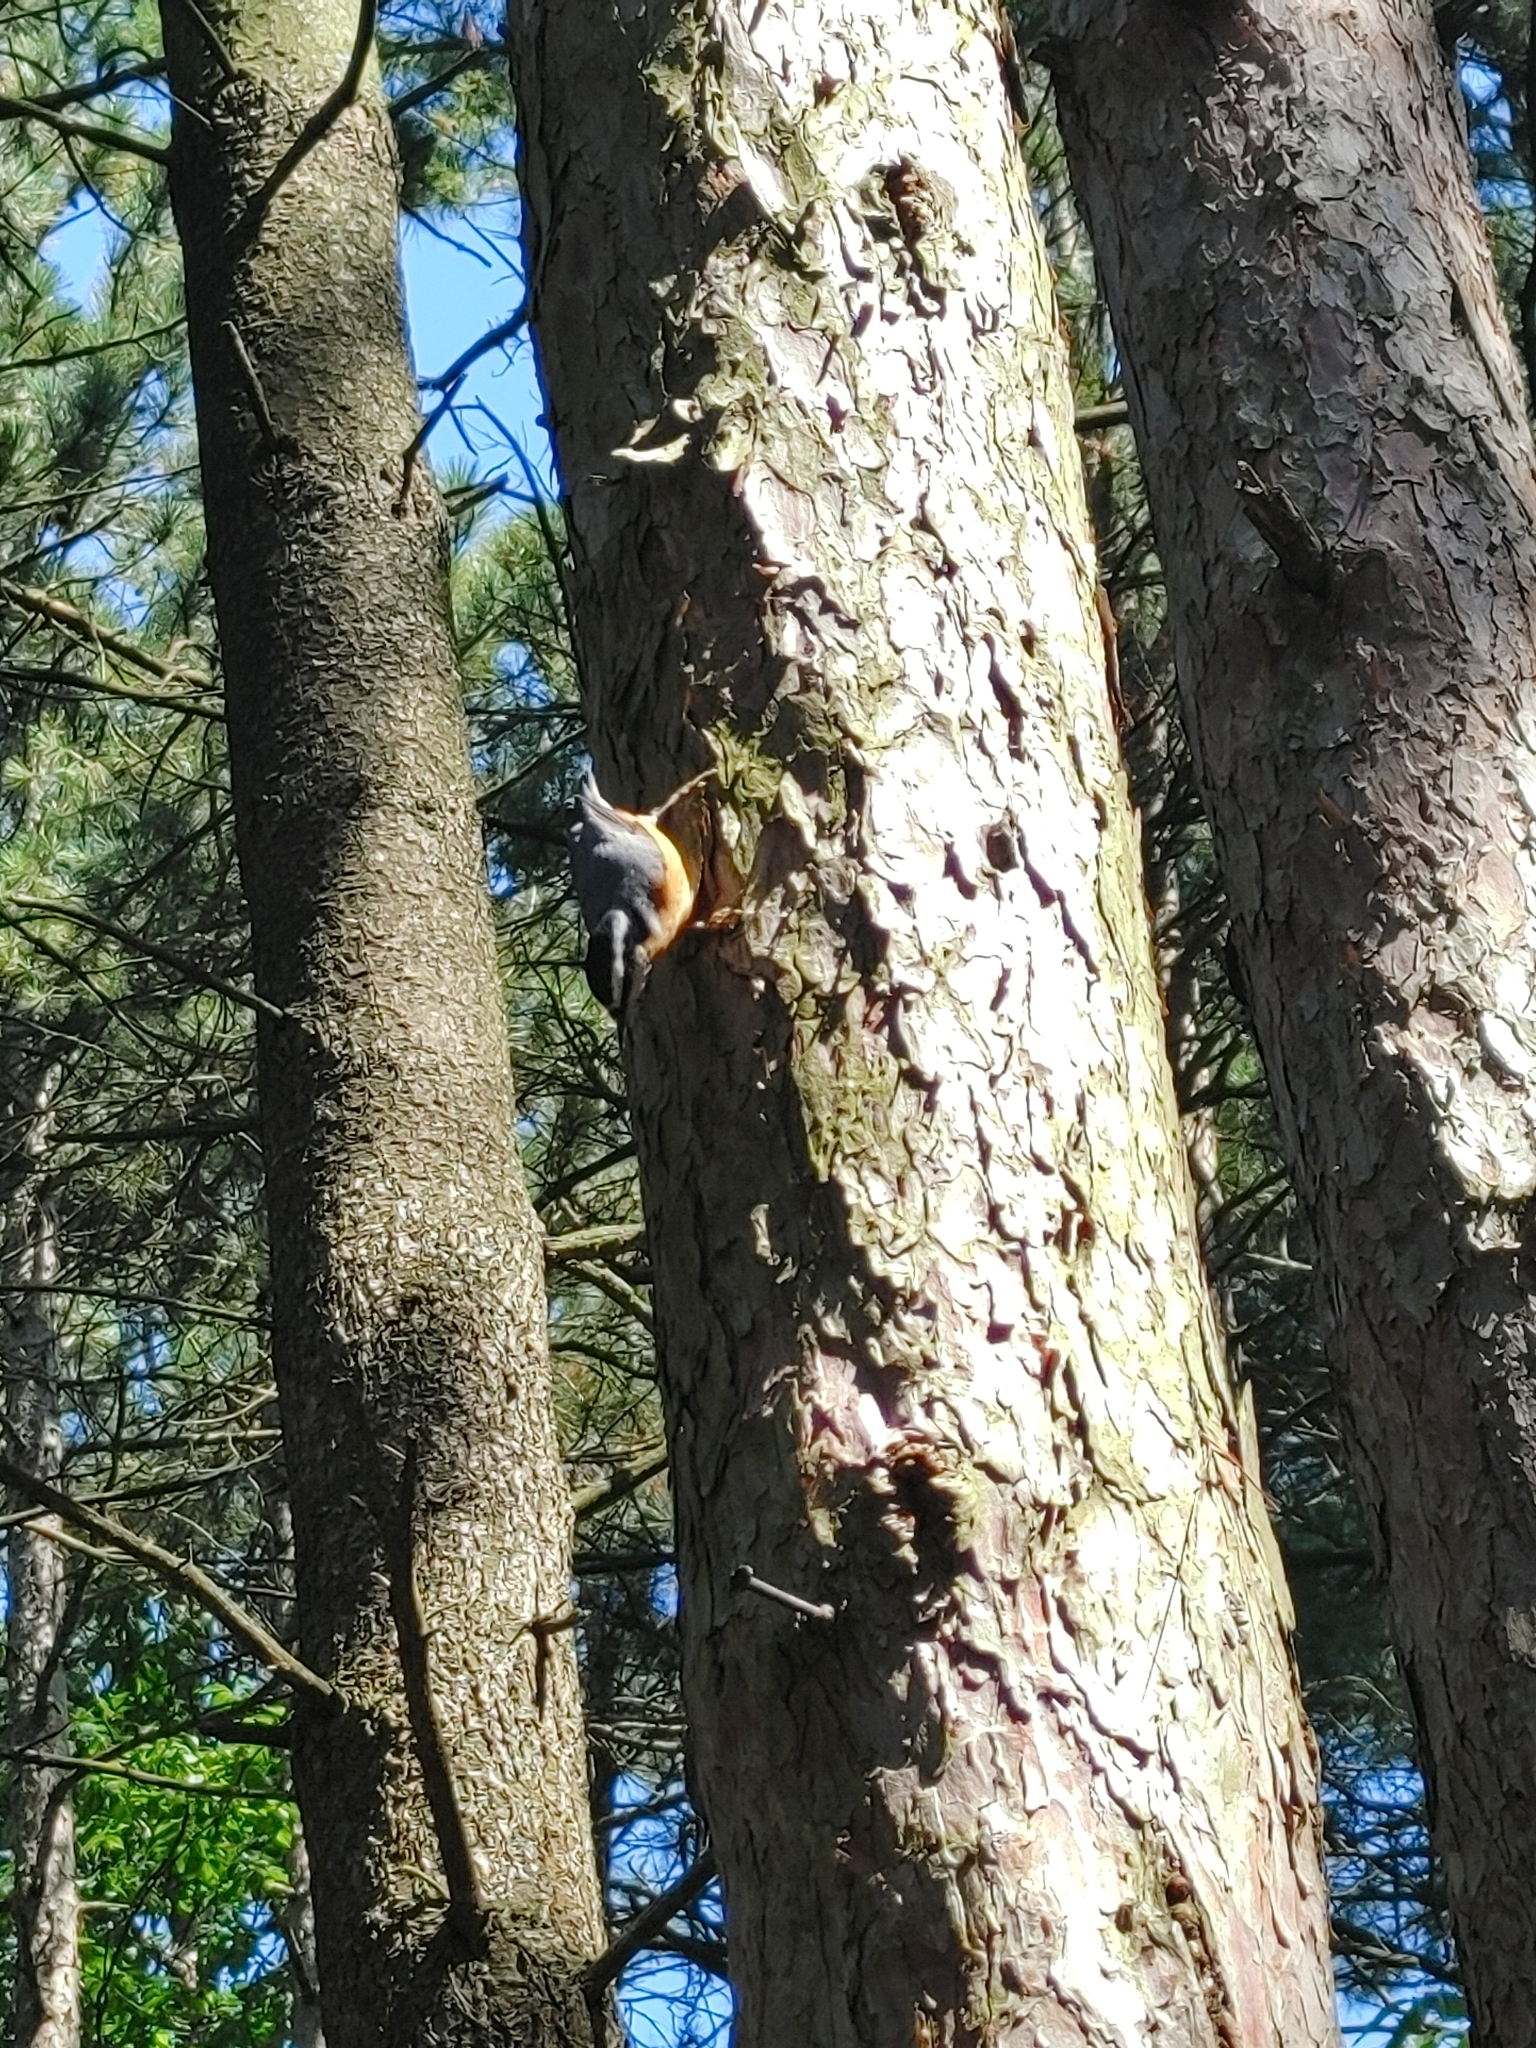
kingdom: Animalia
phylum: Chordata
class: Aves
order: Passeriformes
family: Sittidae
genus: Sitta
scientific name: Sitta canadensis
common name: Red-breasted nuthatch
